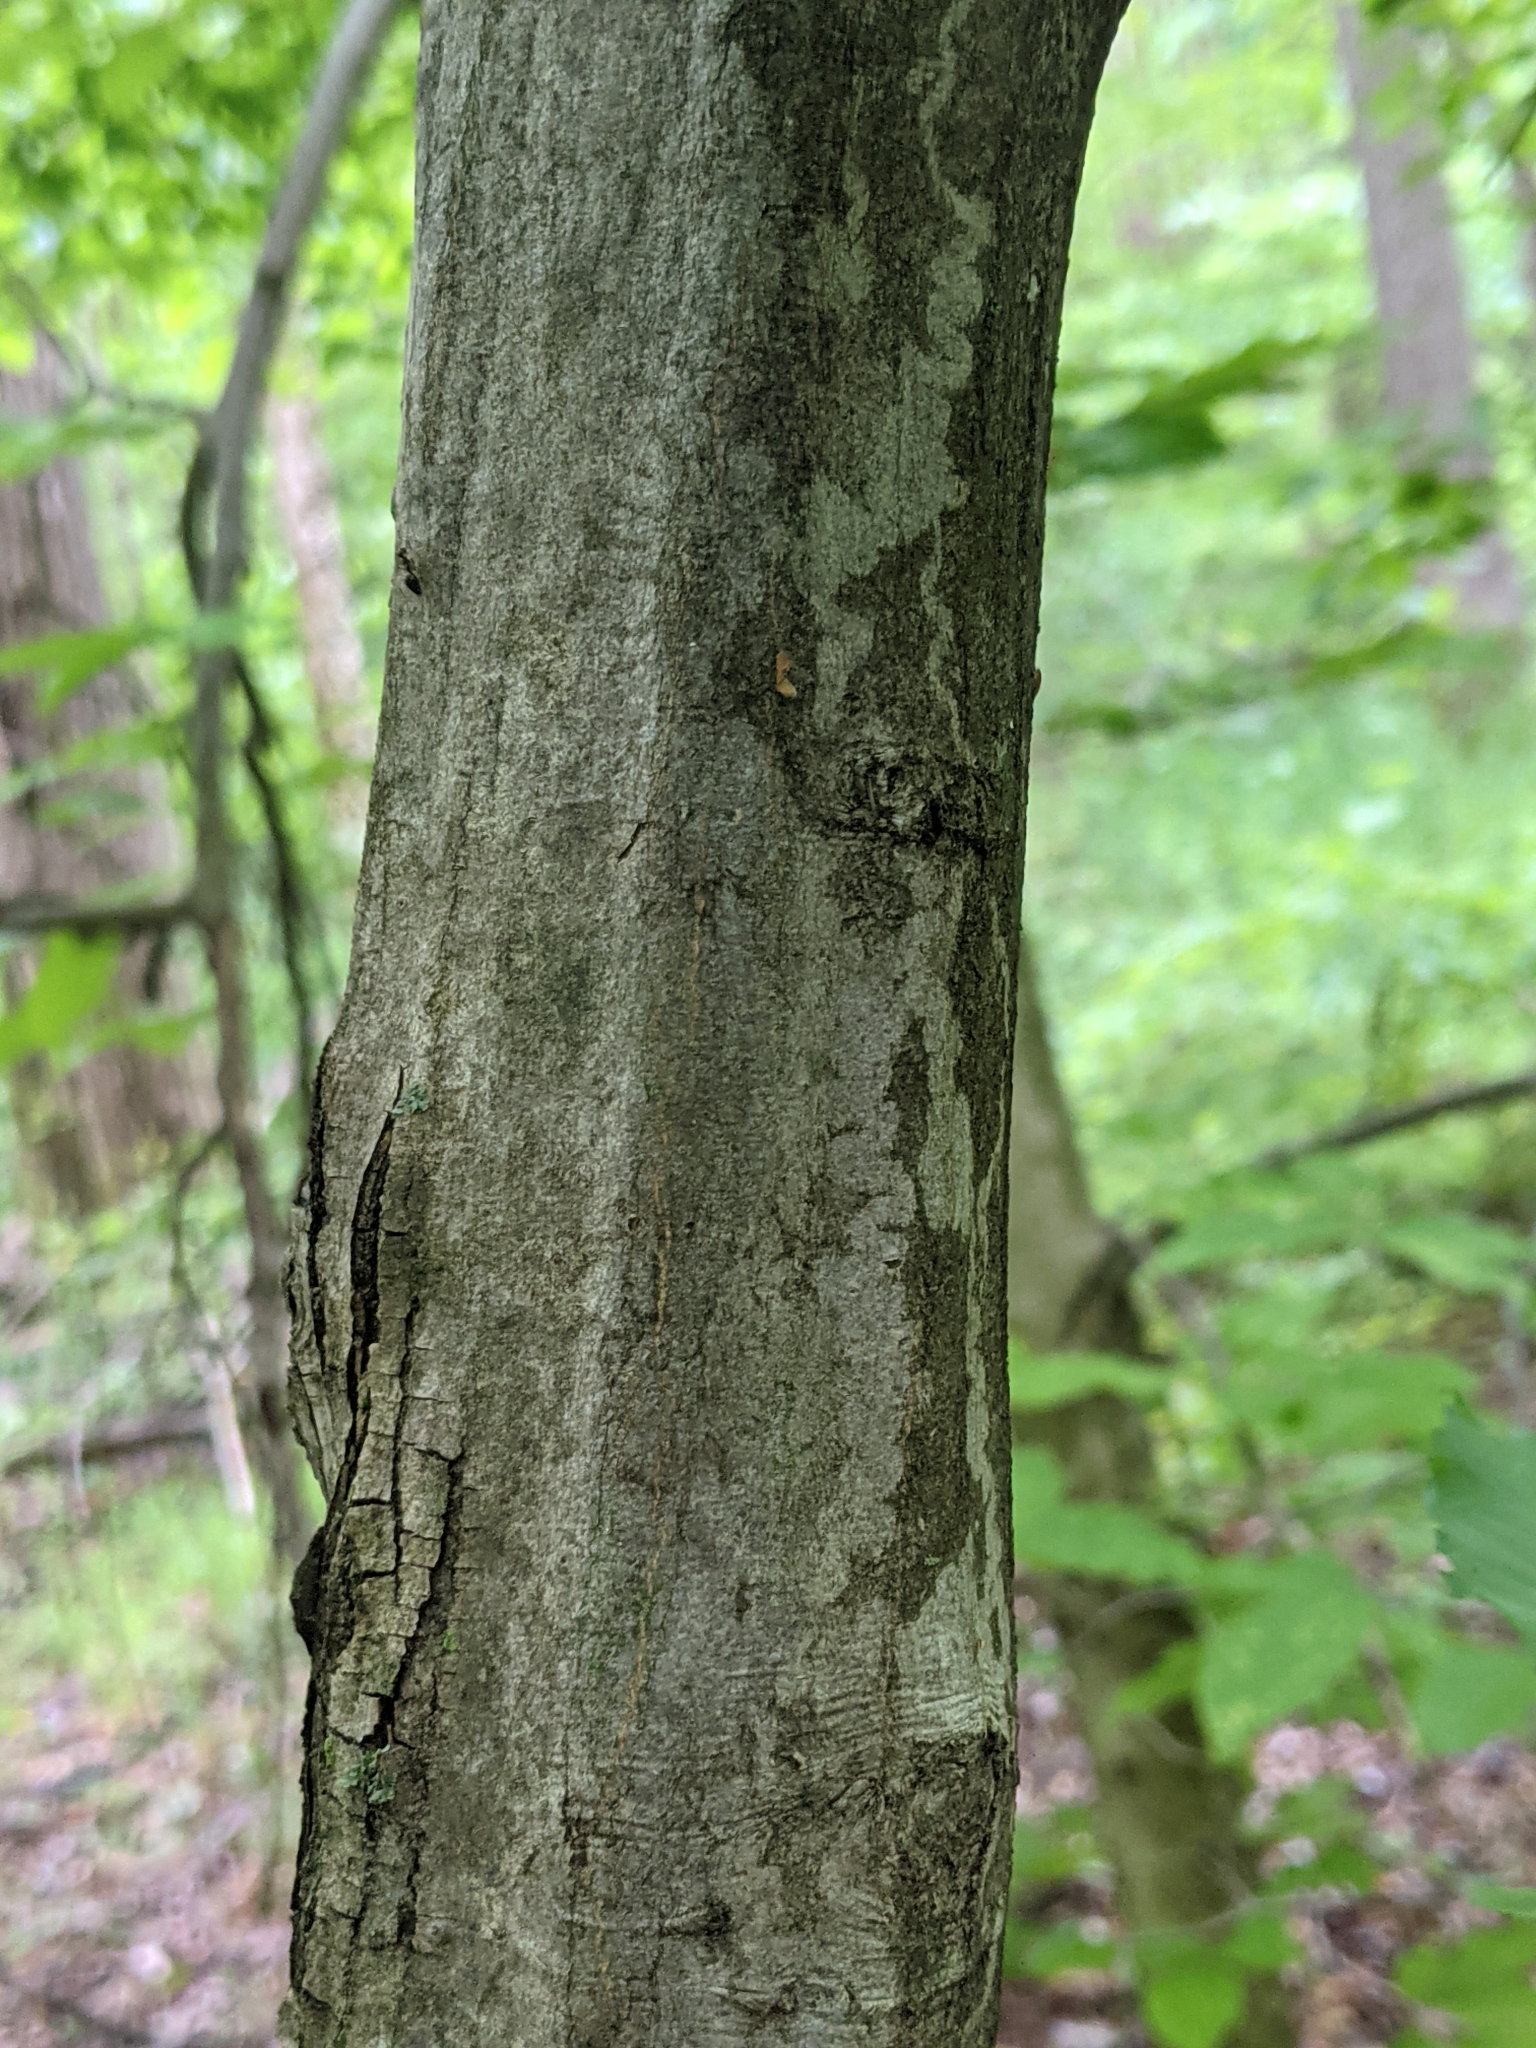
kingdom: Plantae
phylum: Tracheophyta
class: Magnoliopsida
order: Fagales
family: Betulaceae
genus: Carpinus
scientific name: Carpinus caroliniana
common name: American hornbeam
